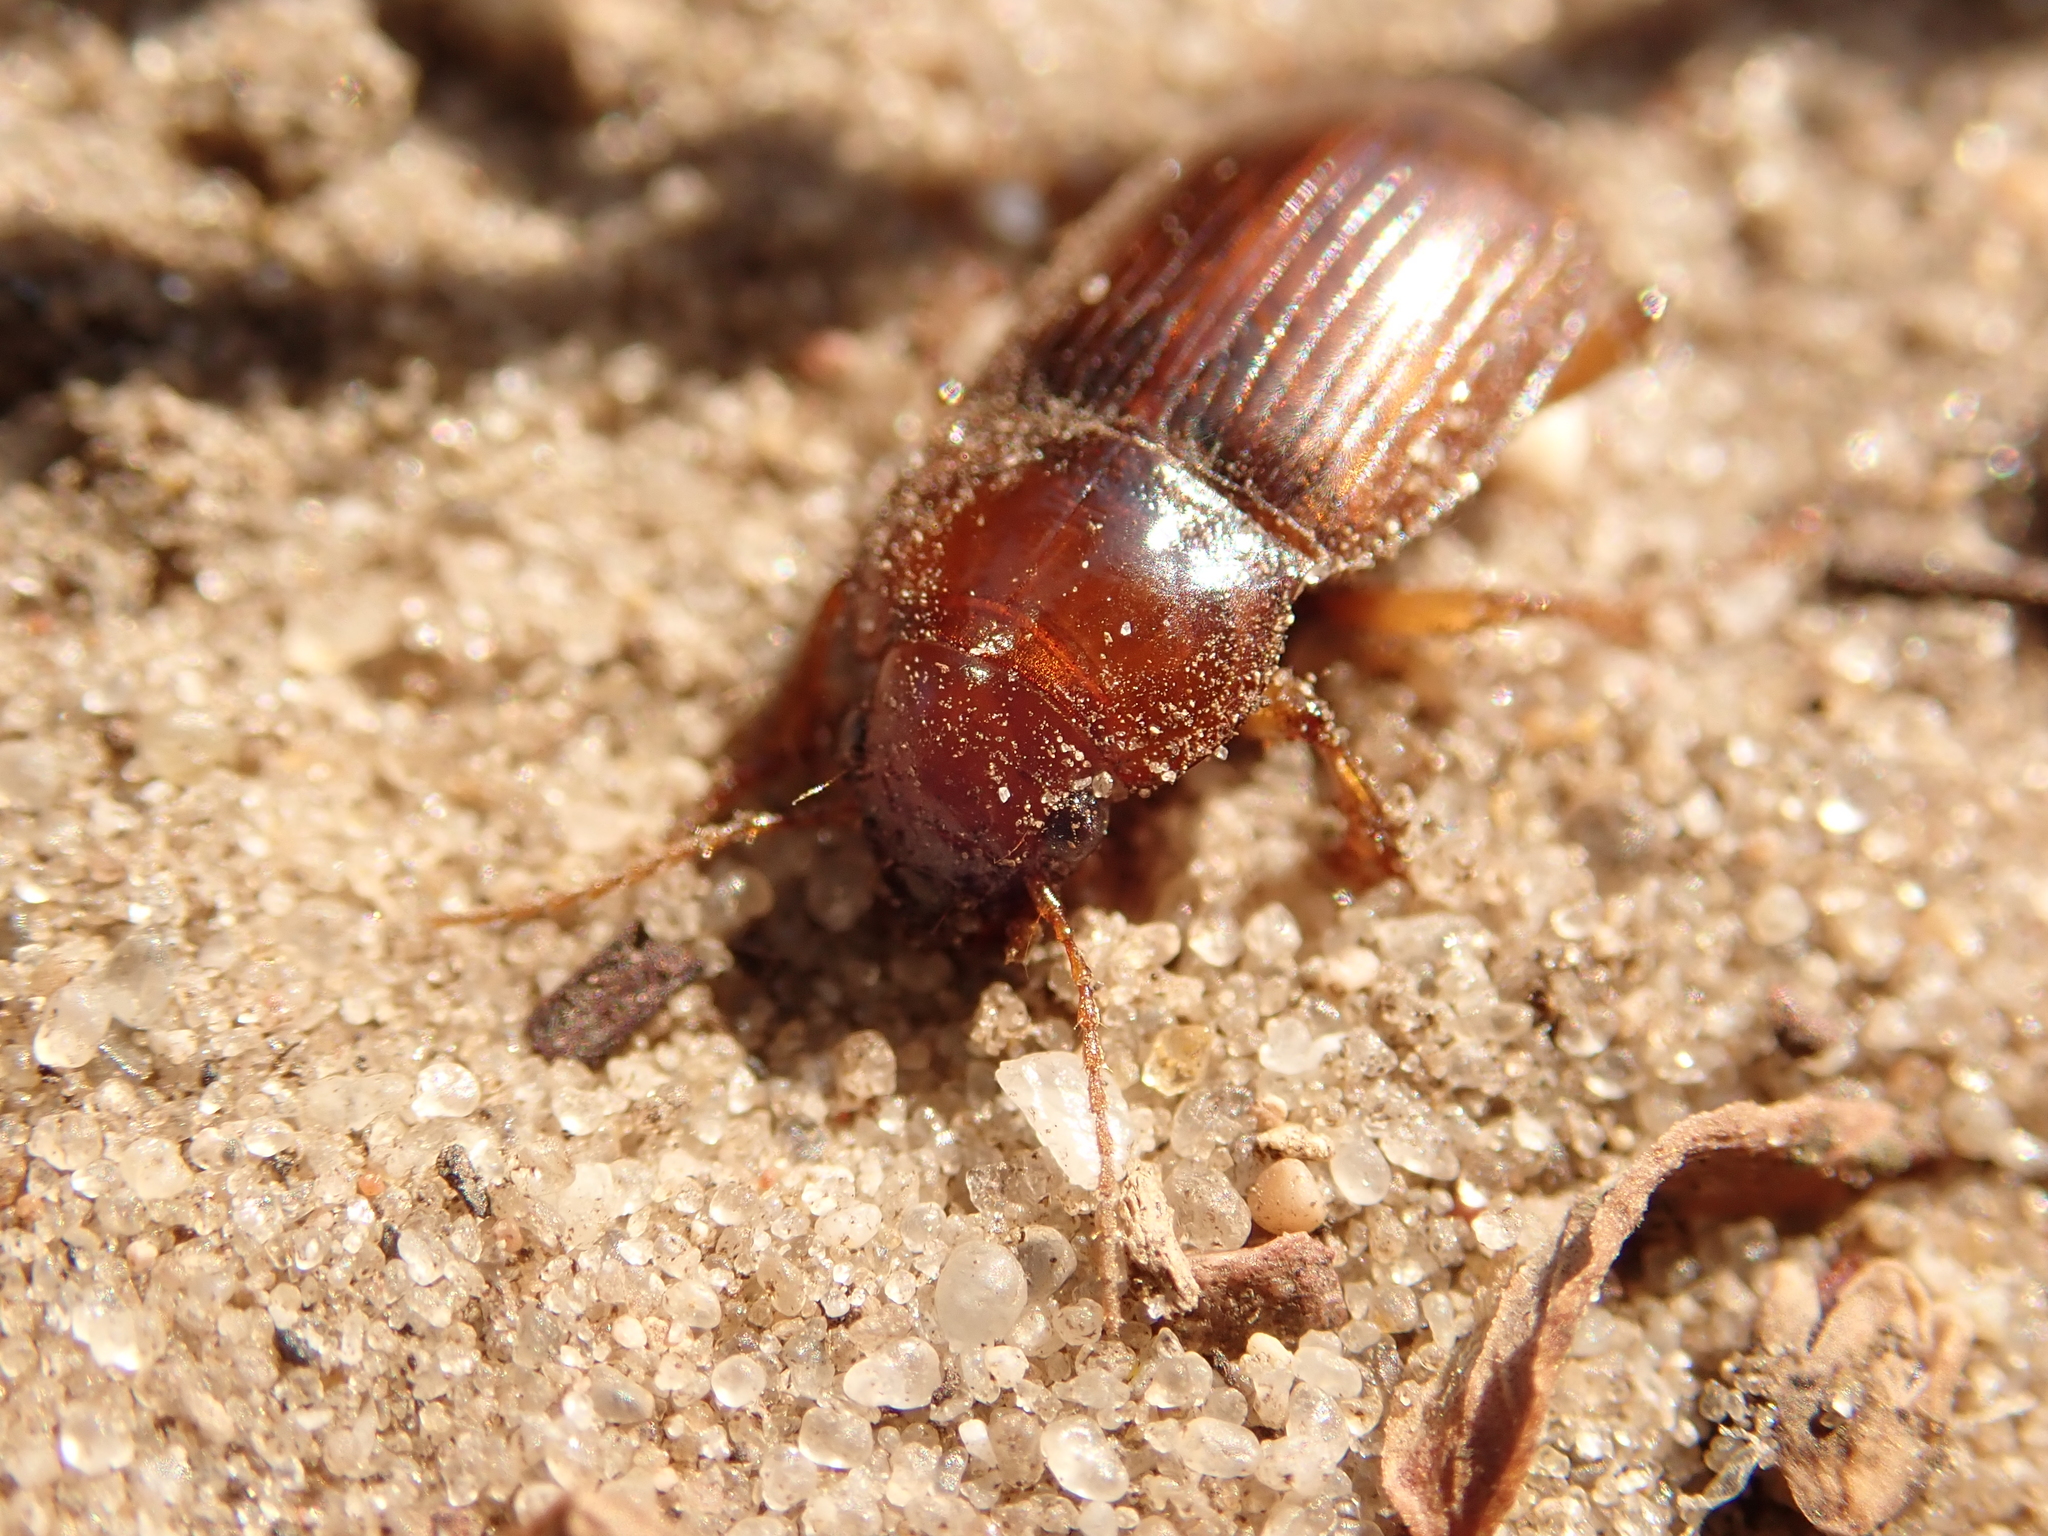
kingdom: Animalia
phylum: Arthropoda
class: Insecta
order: Coleoptera
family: Carabidae
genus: Amara
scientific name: Amara fulva
